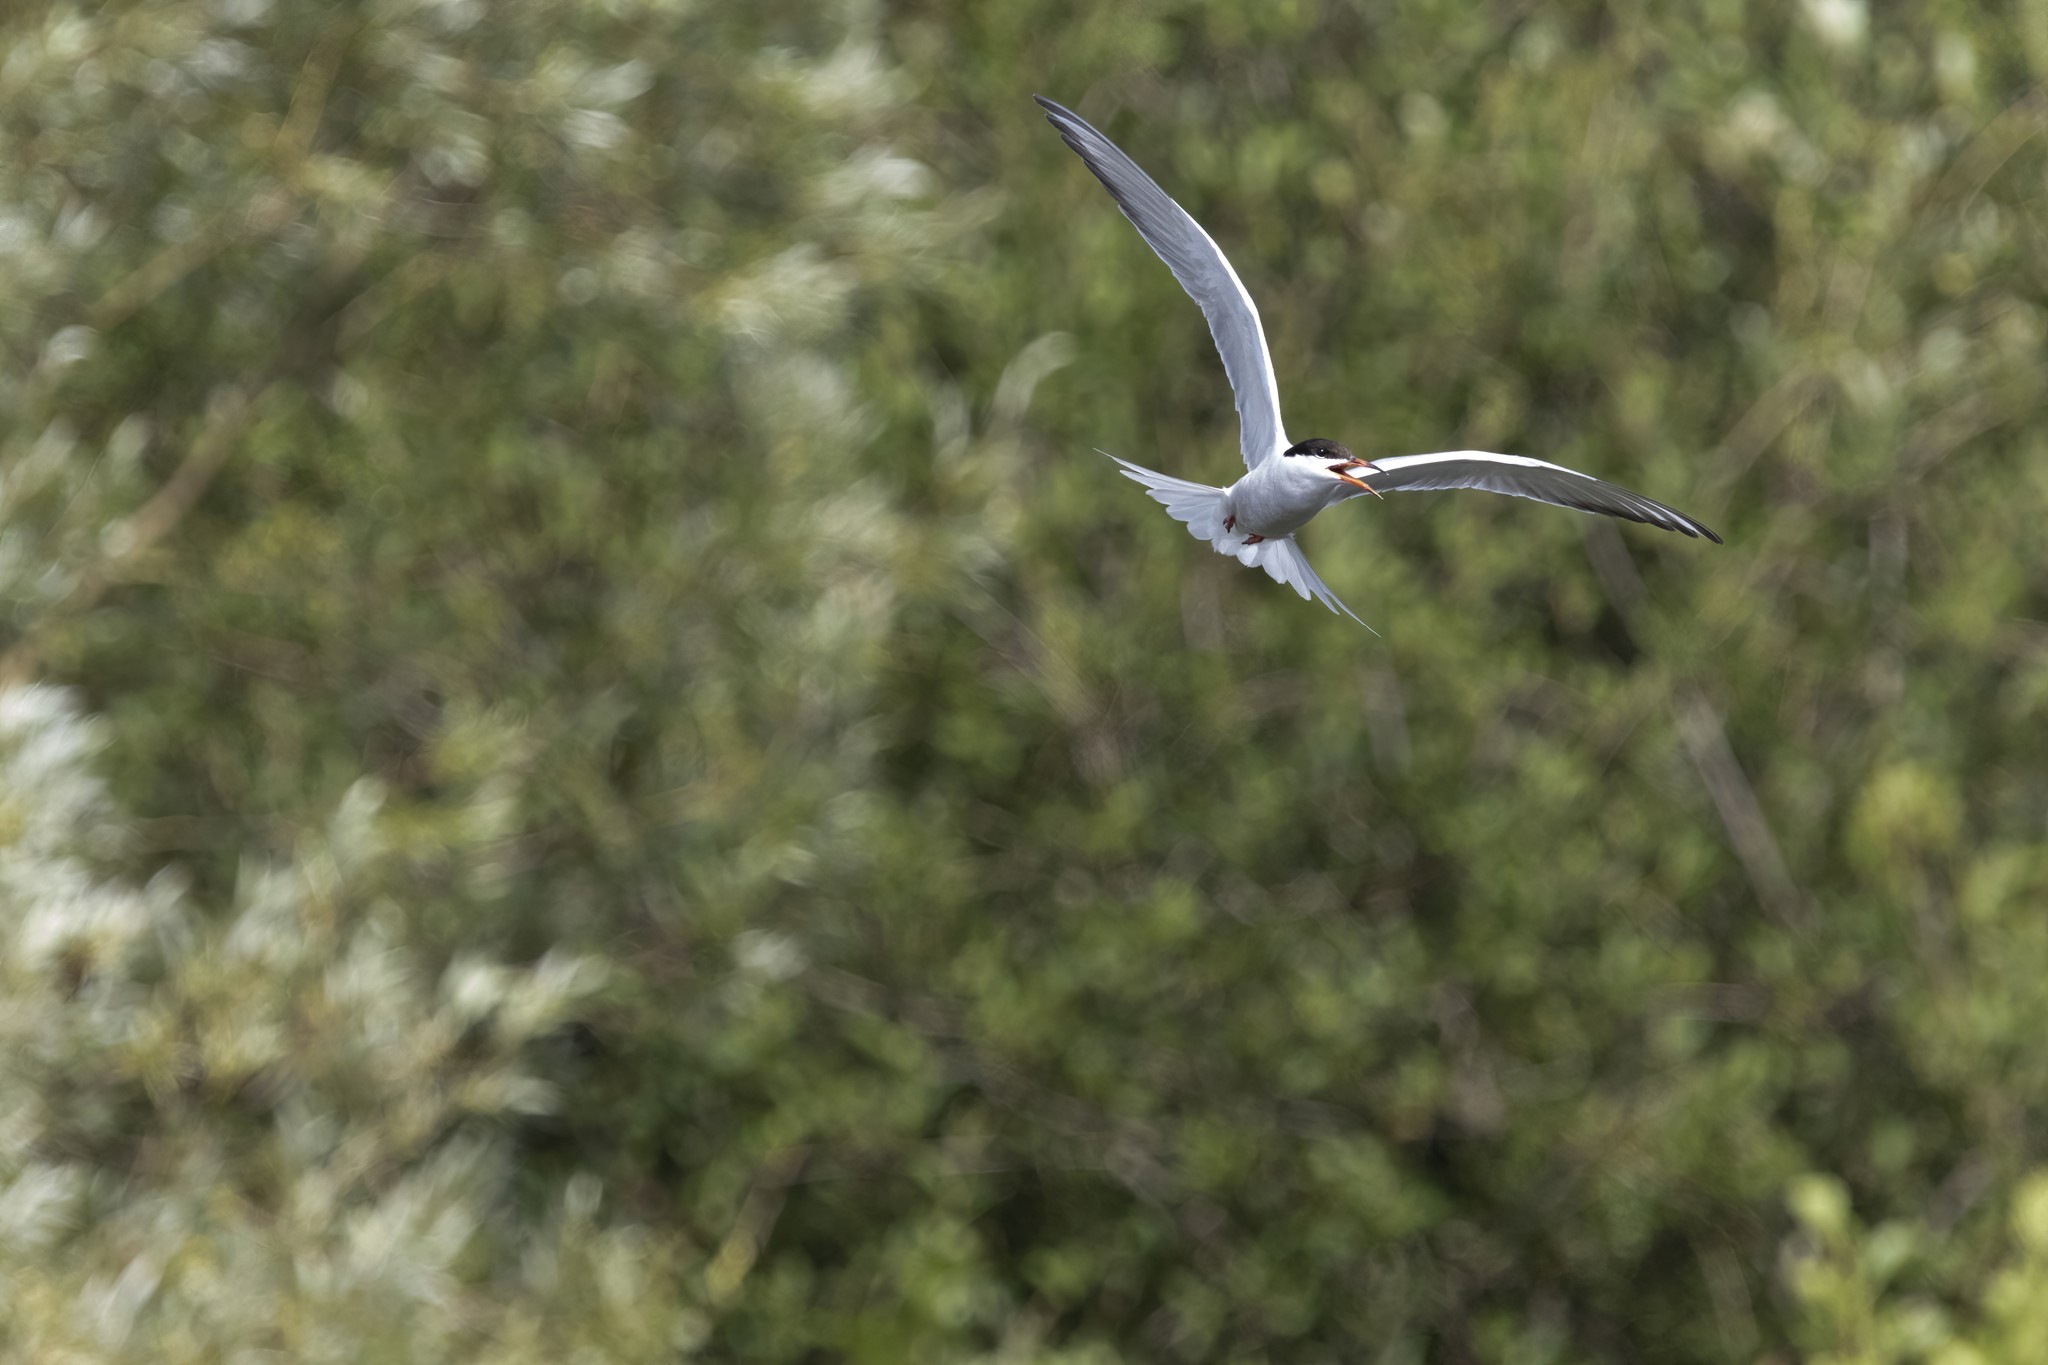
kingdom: Animalia
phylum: Chordata
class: Aves
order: Charadriiformes
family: Laridae
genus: Sterna
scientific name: Sterna hirundo
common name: Common tern
